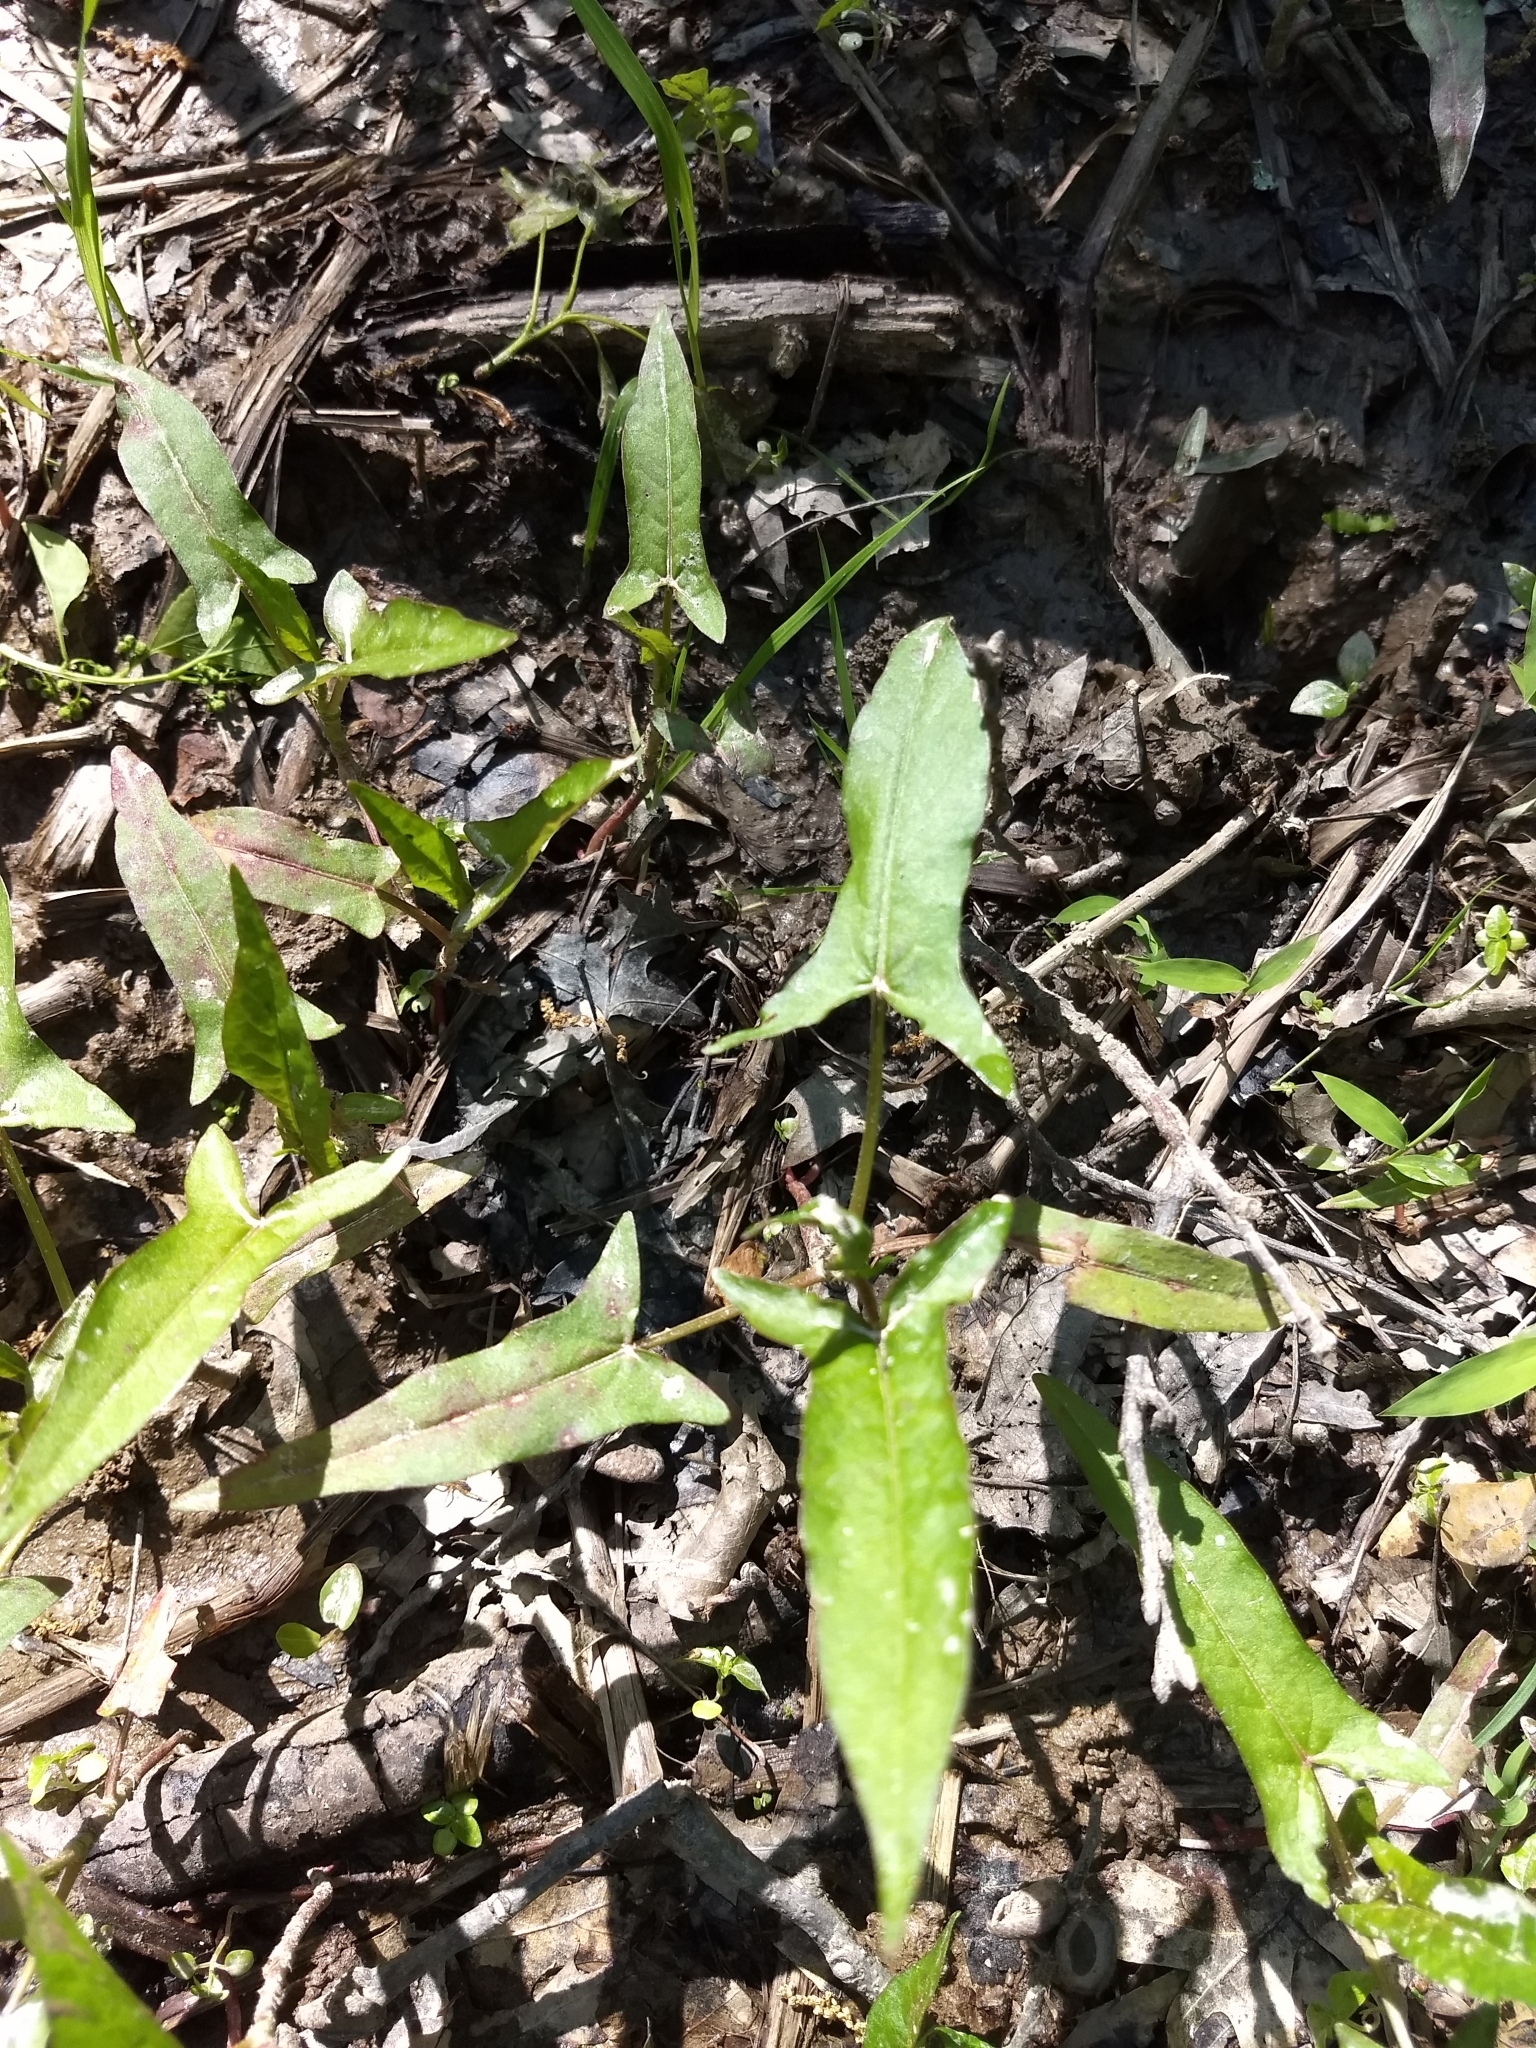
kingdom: Plantae
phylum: Tracheophyta
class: Magnoliopsida
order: Caryophyllales
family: Polygonaceae
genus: Persicaria
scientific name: Persicaria arifolia
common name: Halberd-leaved tear-thumb
